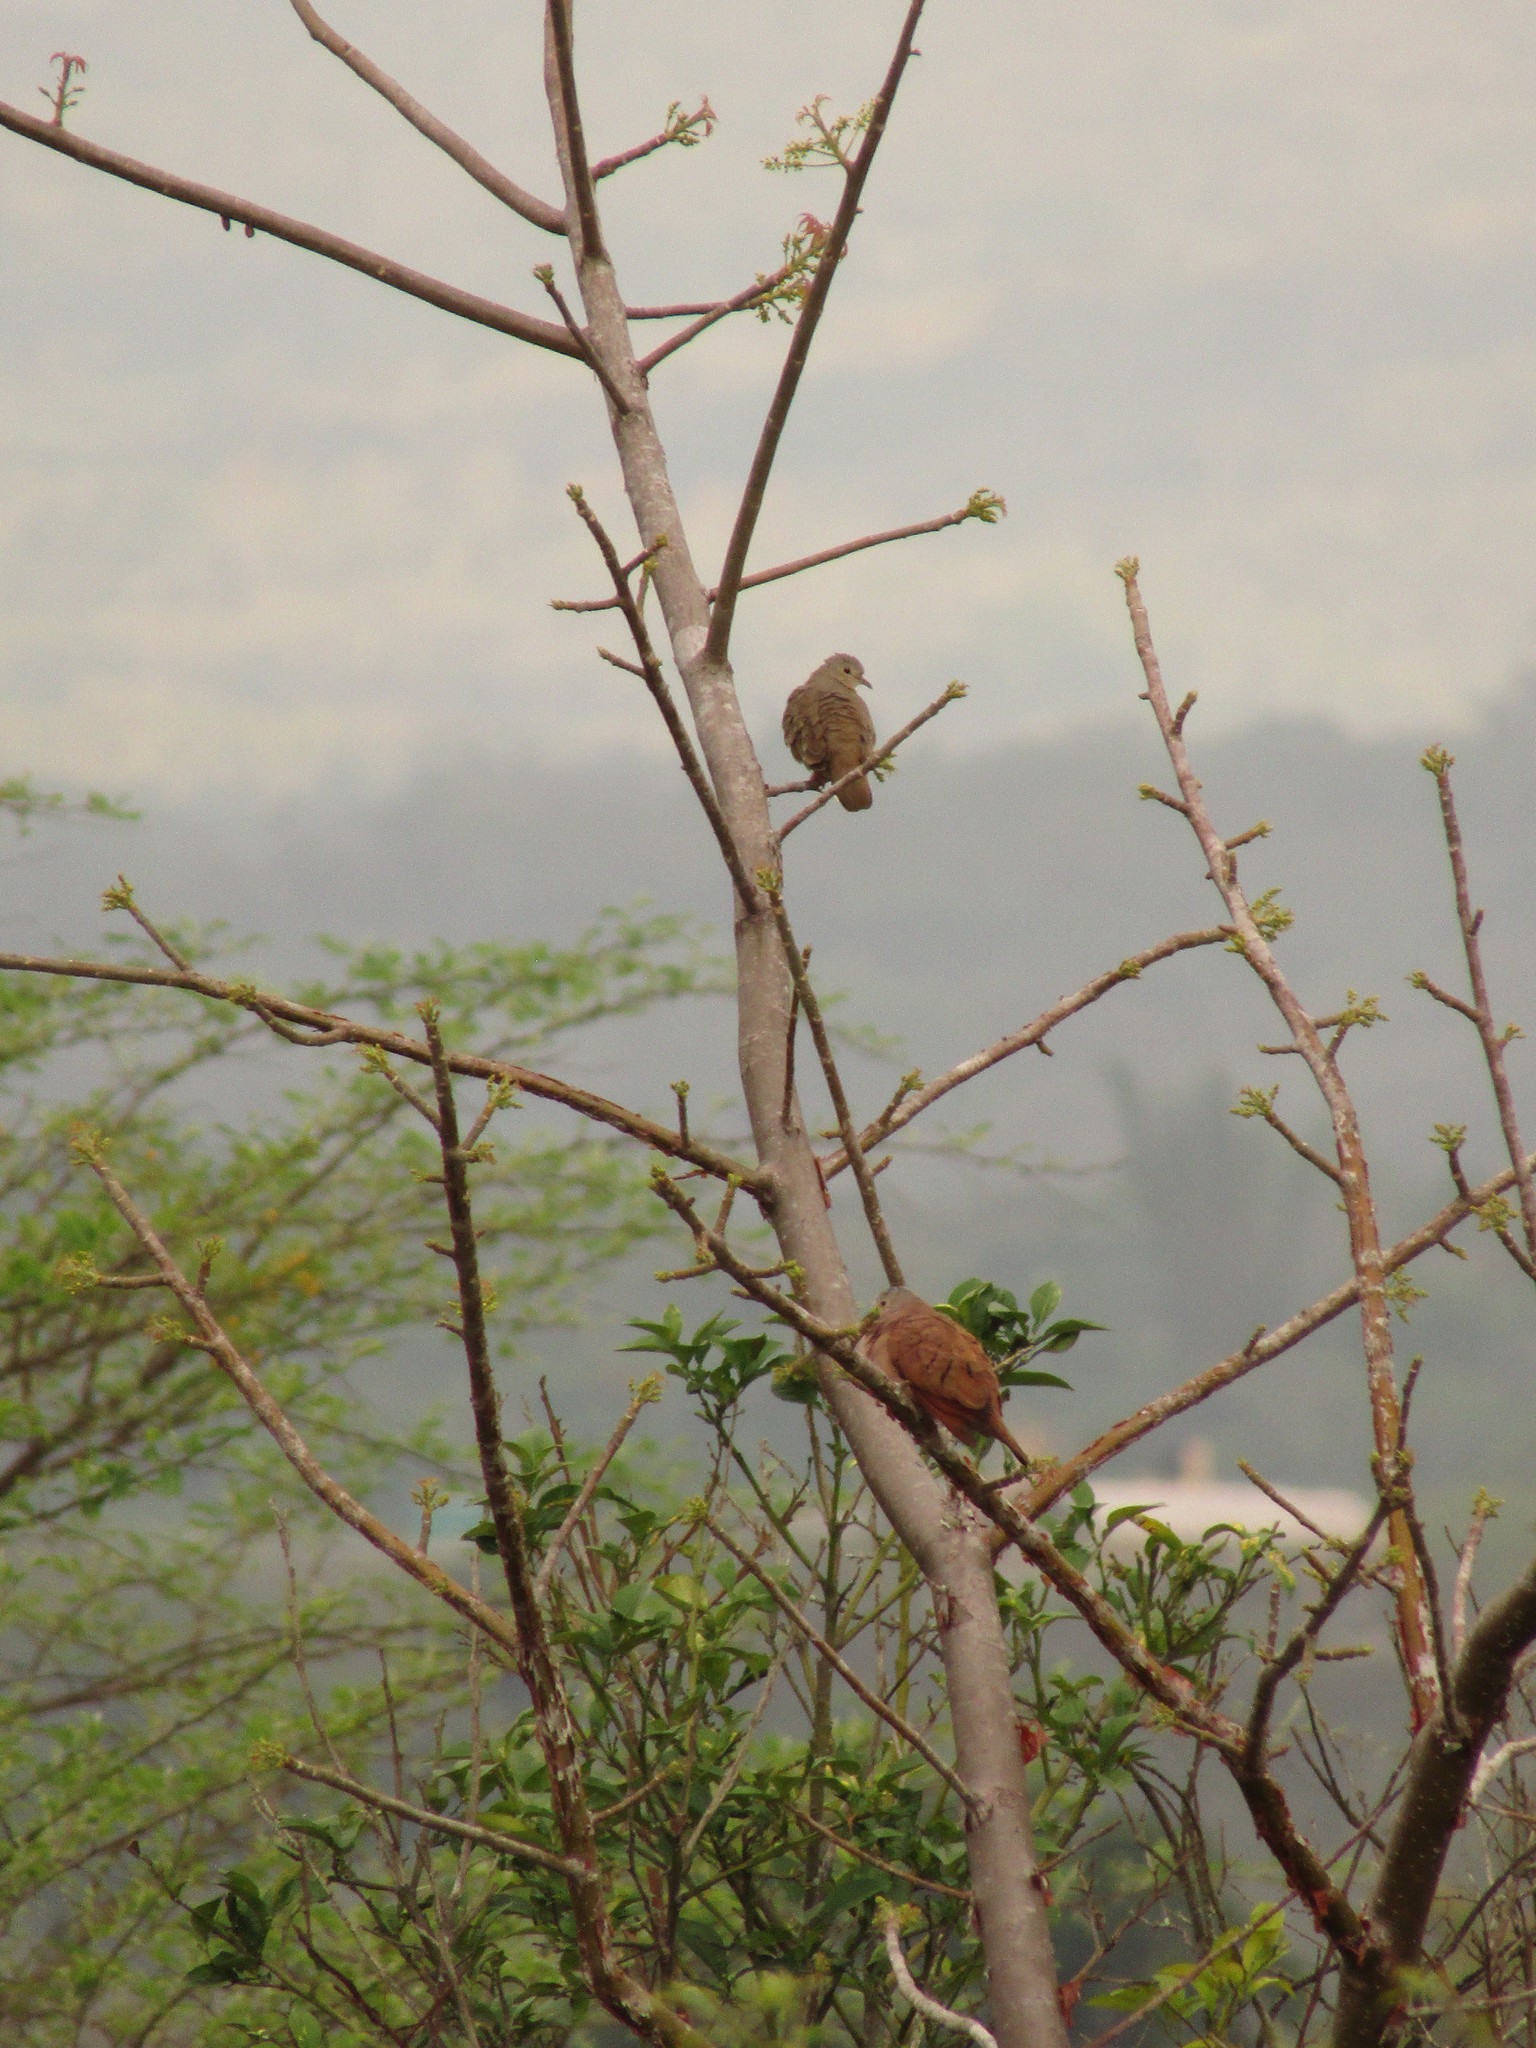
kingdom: Animalia
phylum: Chordata
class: Aves
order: Columbiformes
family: Columbidae
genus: Columbina
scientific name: Columbina talpacoti
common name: Ruddy ground dove
